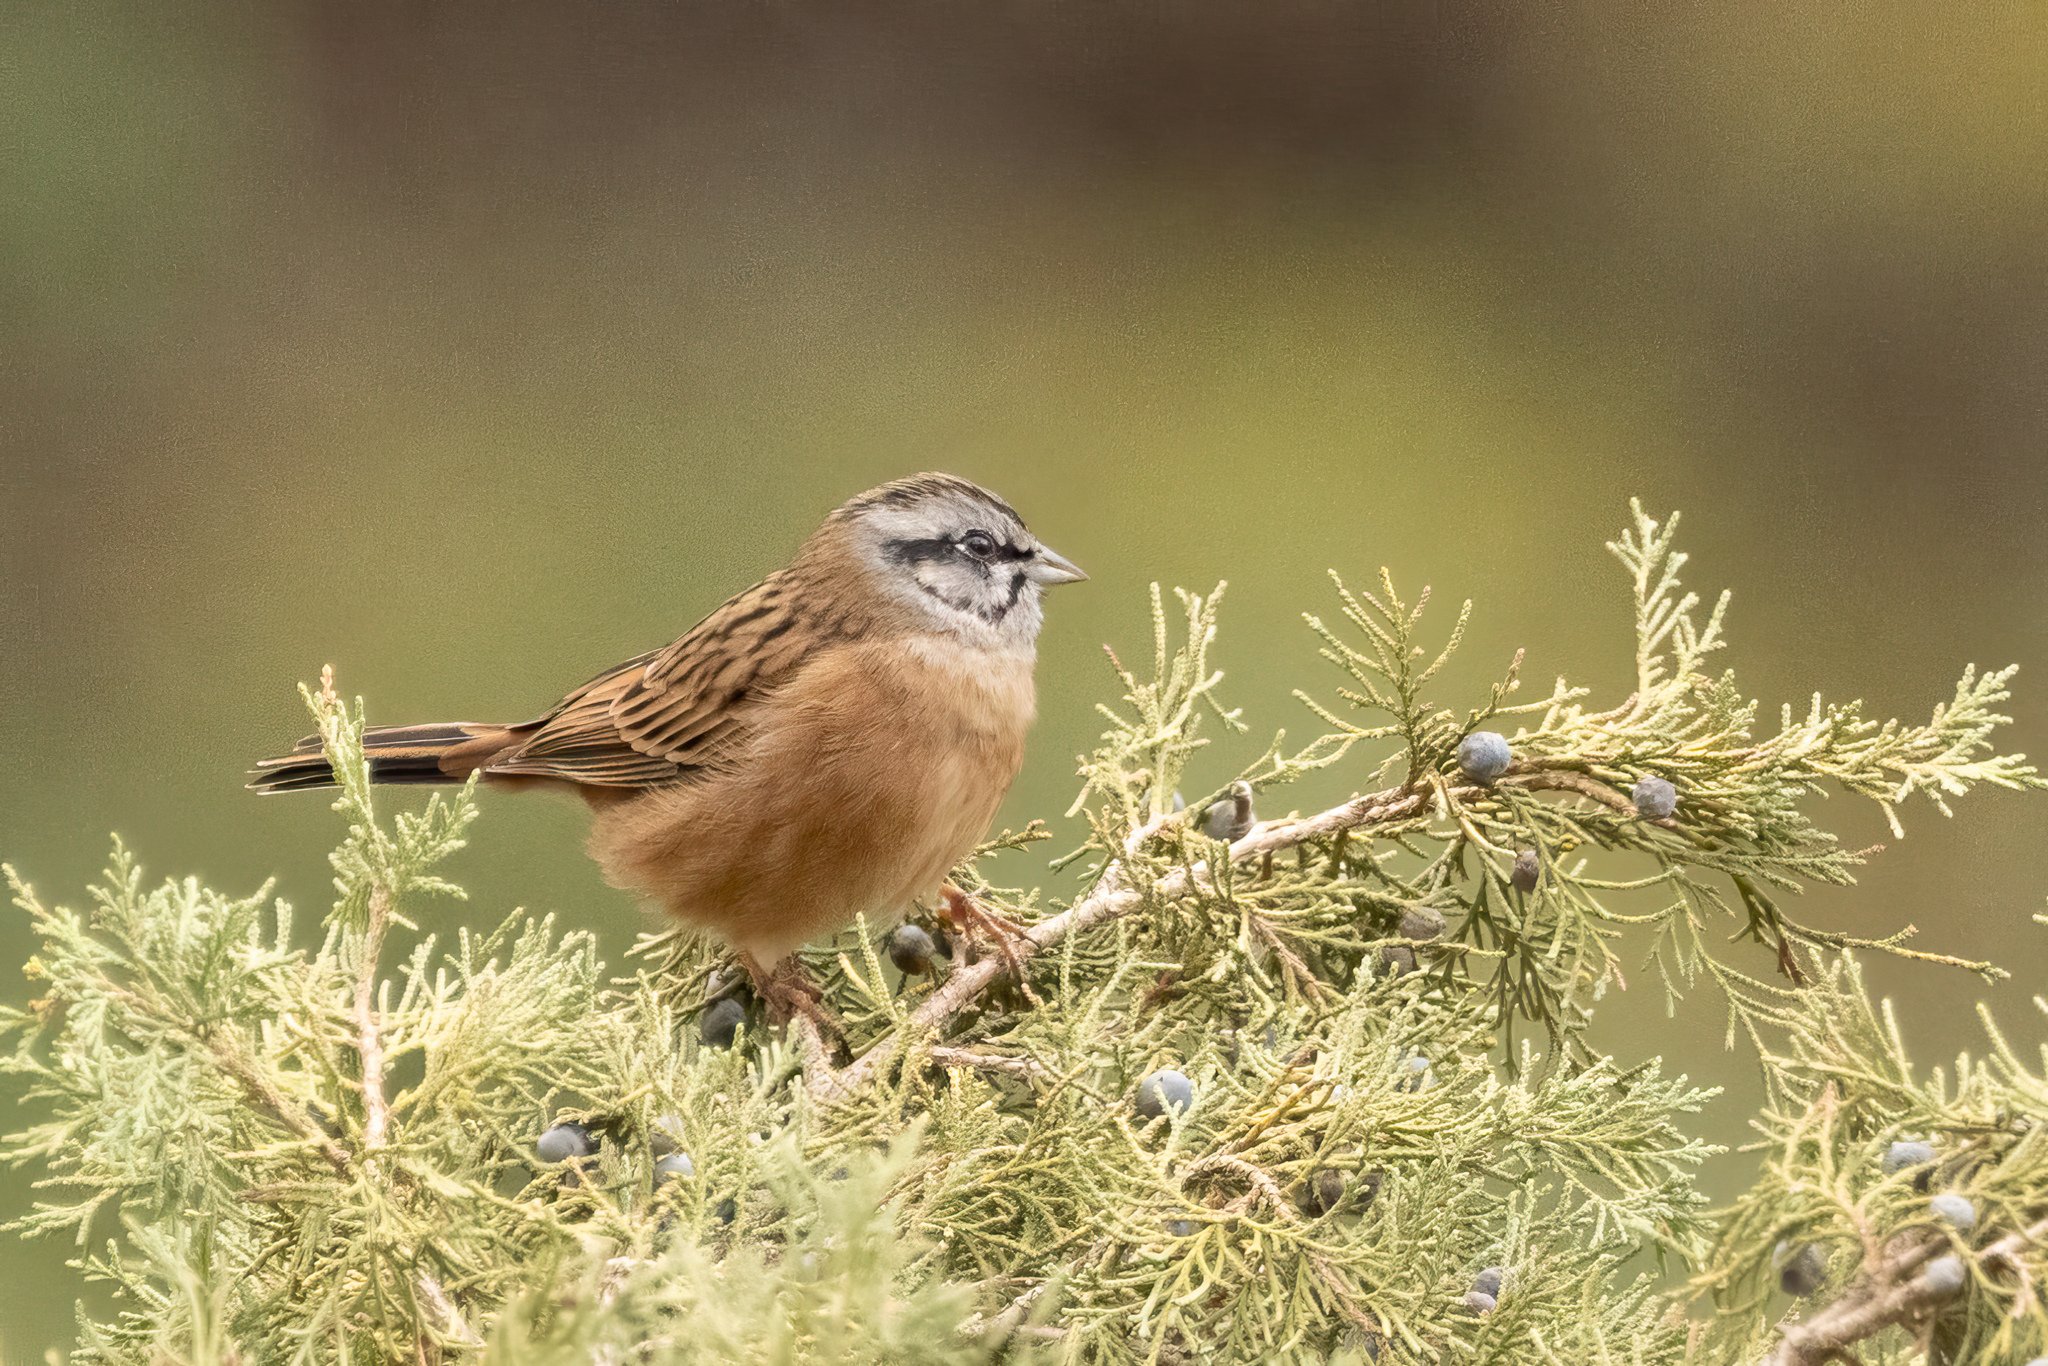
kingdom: Animalia
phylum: Chordata
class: Aves
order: Passeriformes
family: Emberizidae
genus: Emberiza
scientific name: Emberiza cia
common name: Rock bunting
